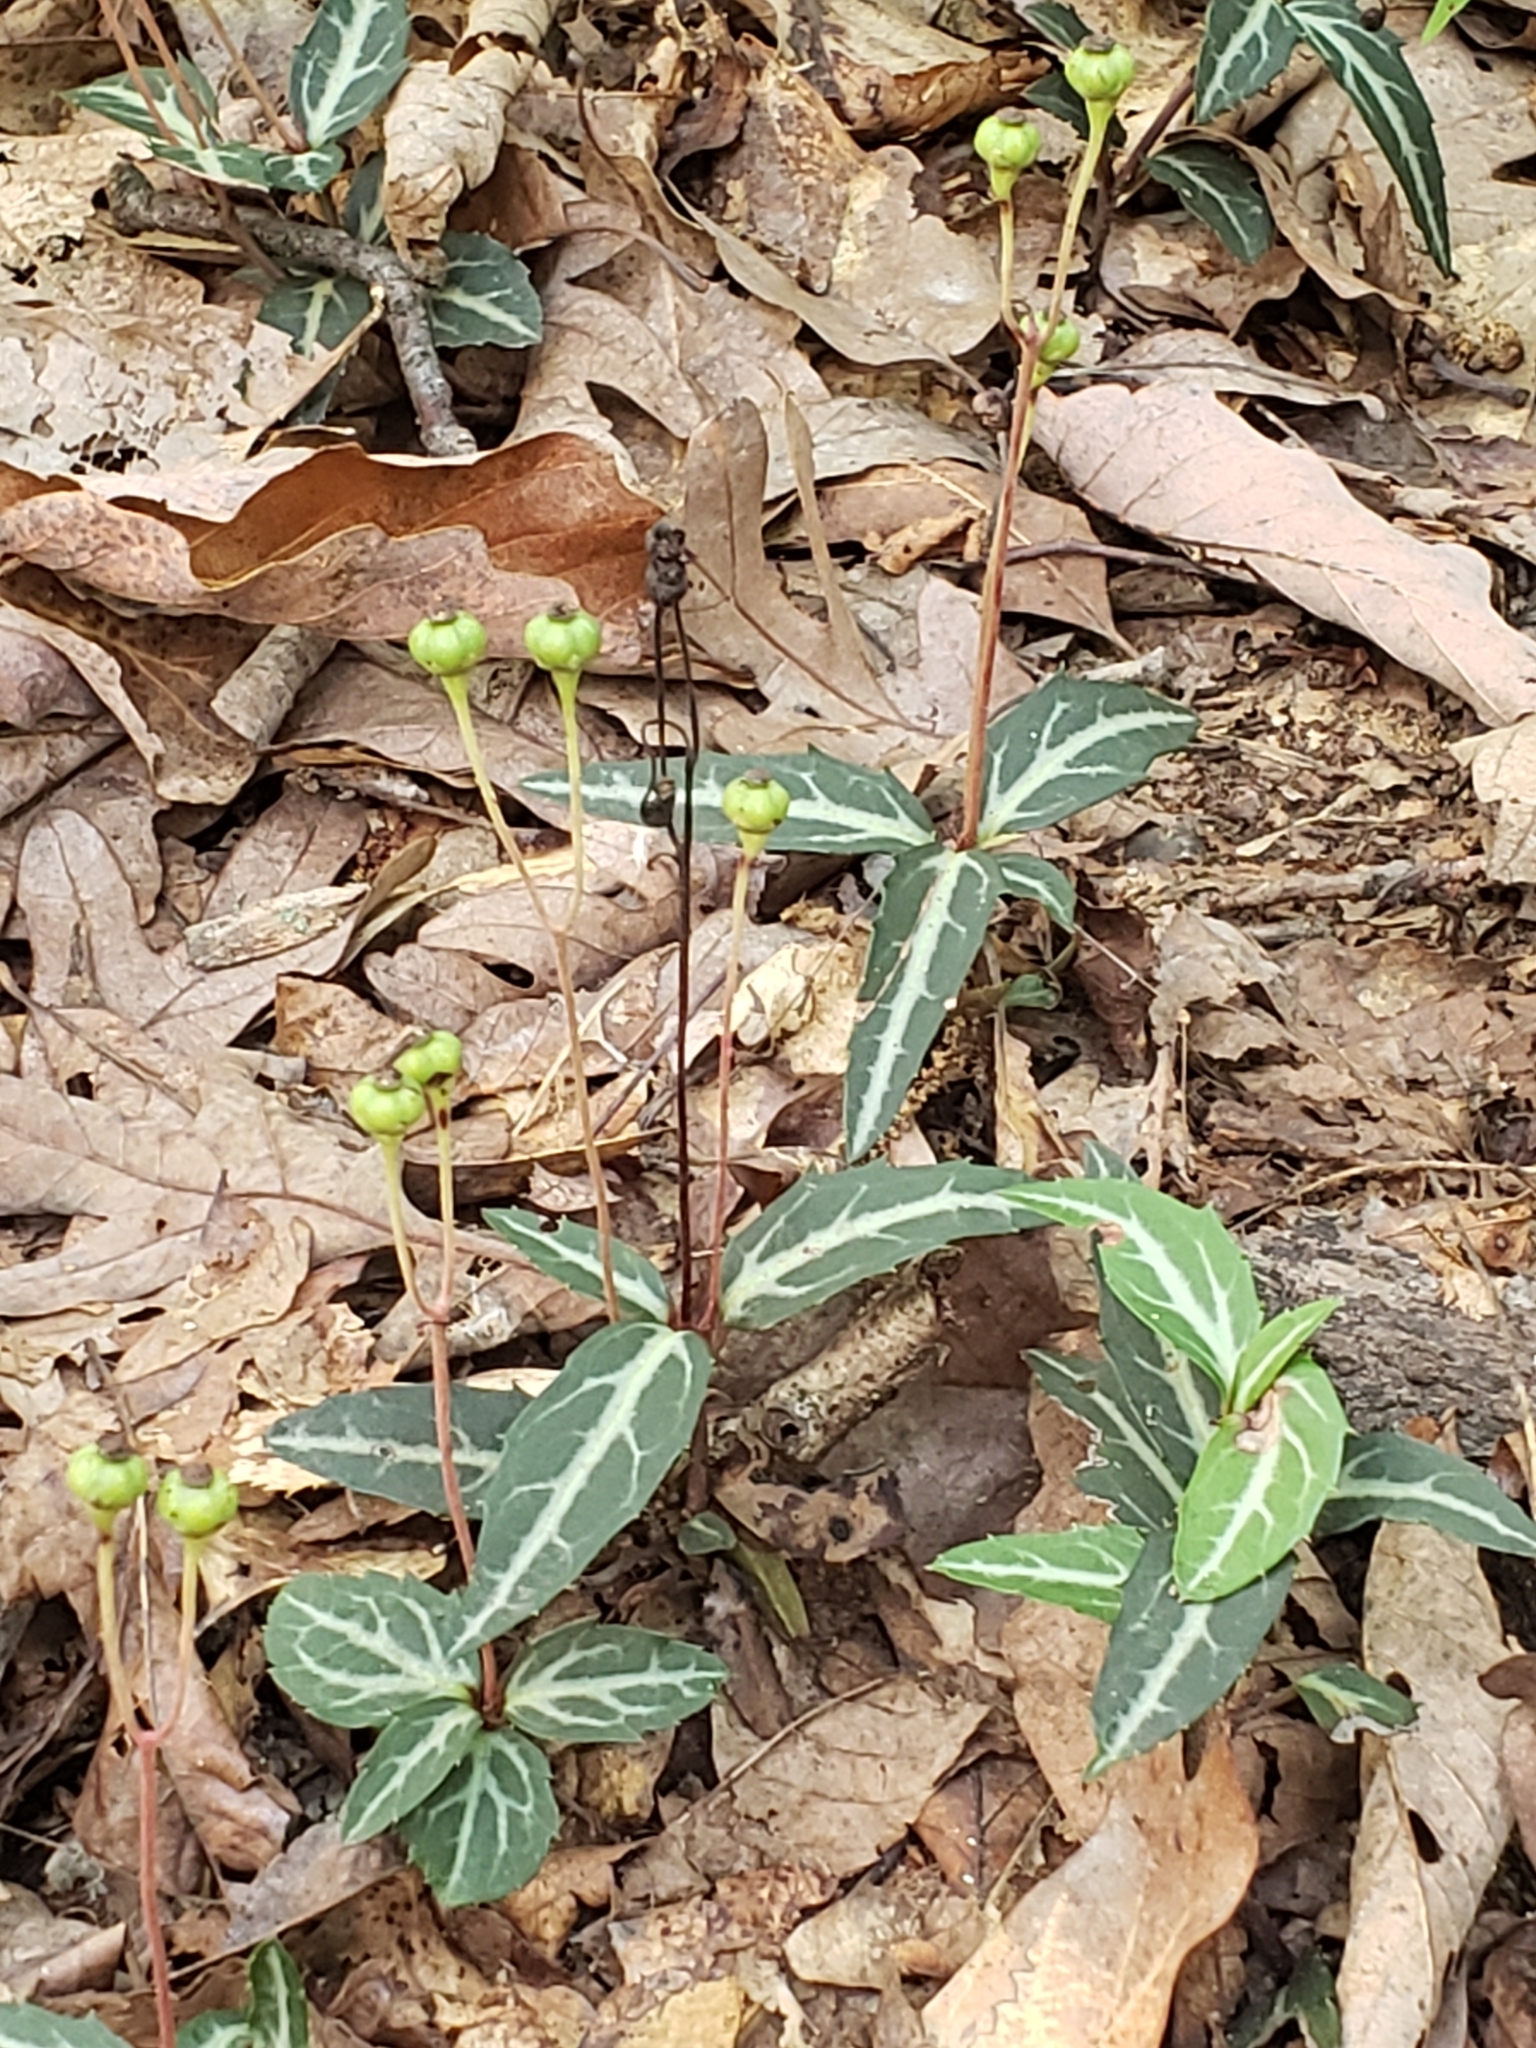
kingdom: Plantae
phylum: Tracheophyta
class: Magnoliopsida
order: Ericales
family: Ericaceae
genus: Chimaphila
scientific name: Chimaphila maculata
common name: Spotted pipsissewa
